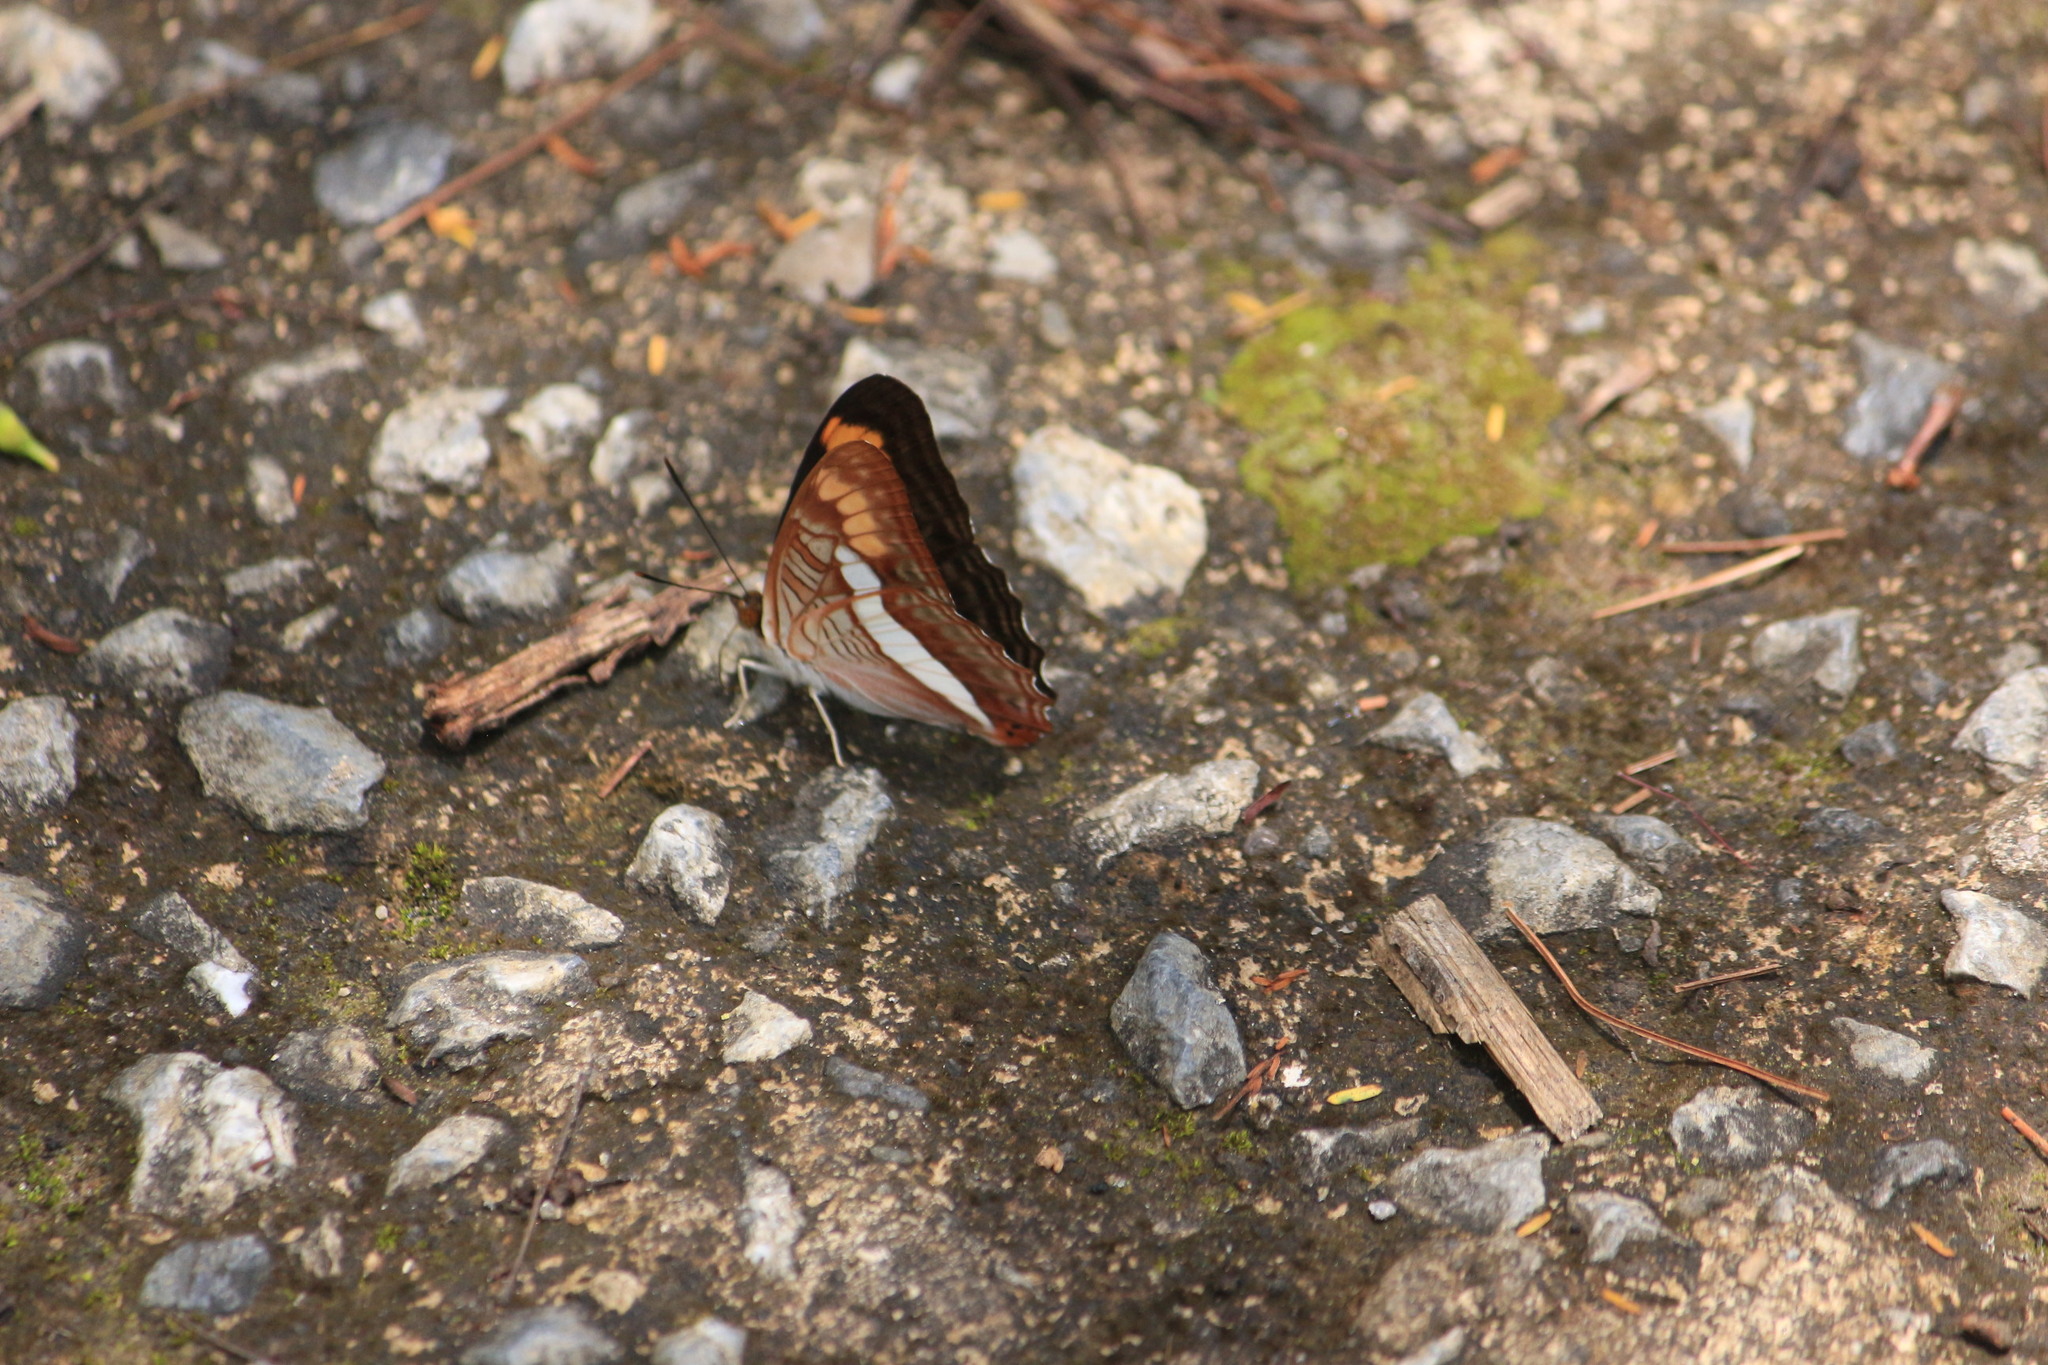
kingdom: Animalia
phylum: Arthropoda
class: Insecta
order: Lepidoptera
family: Nymphalidae
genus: Limenitis
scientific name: Limenitis pithys
